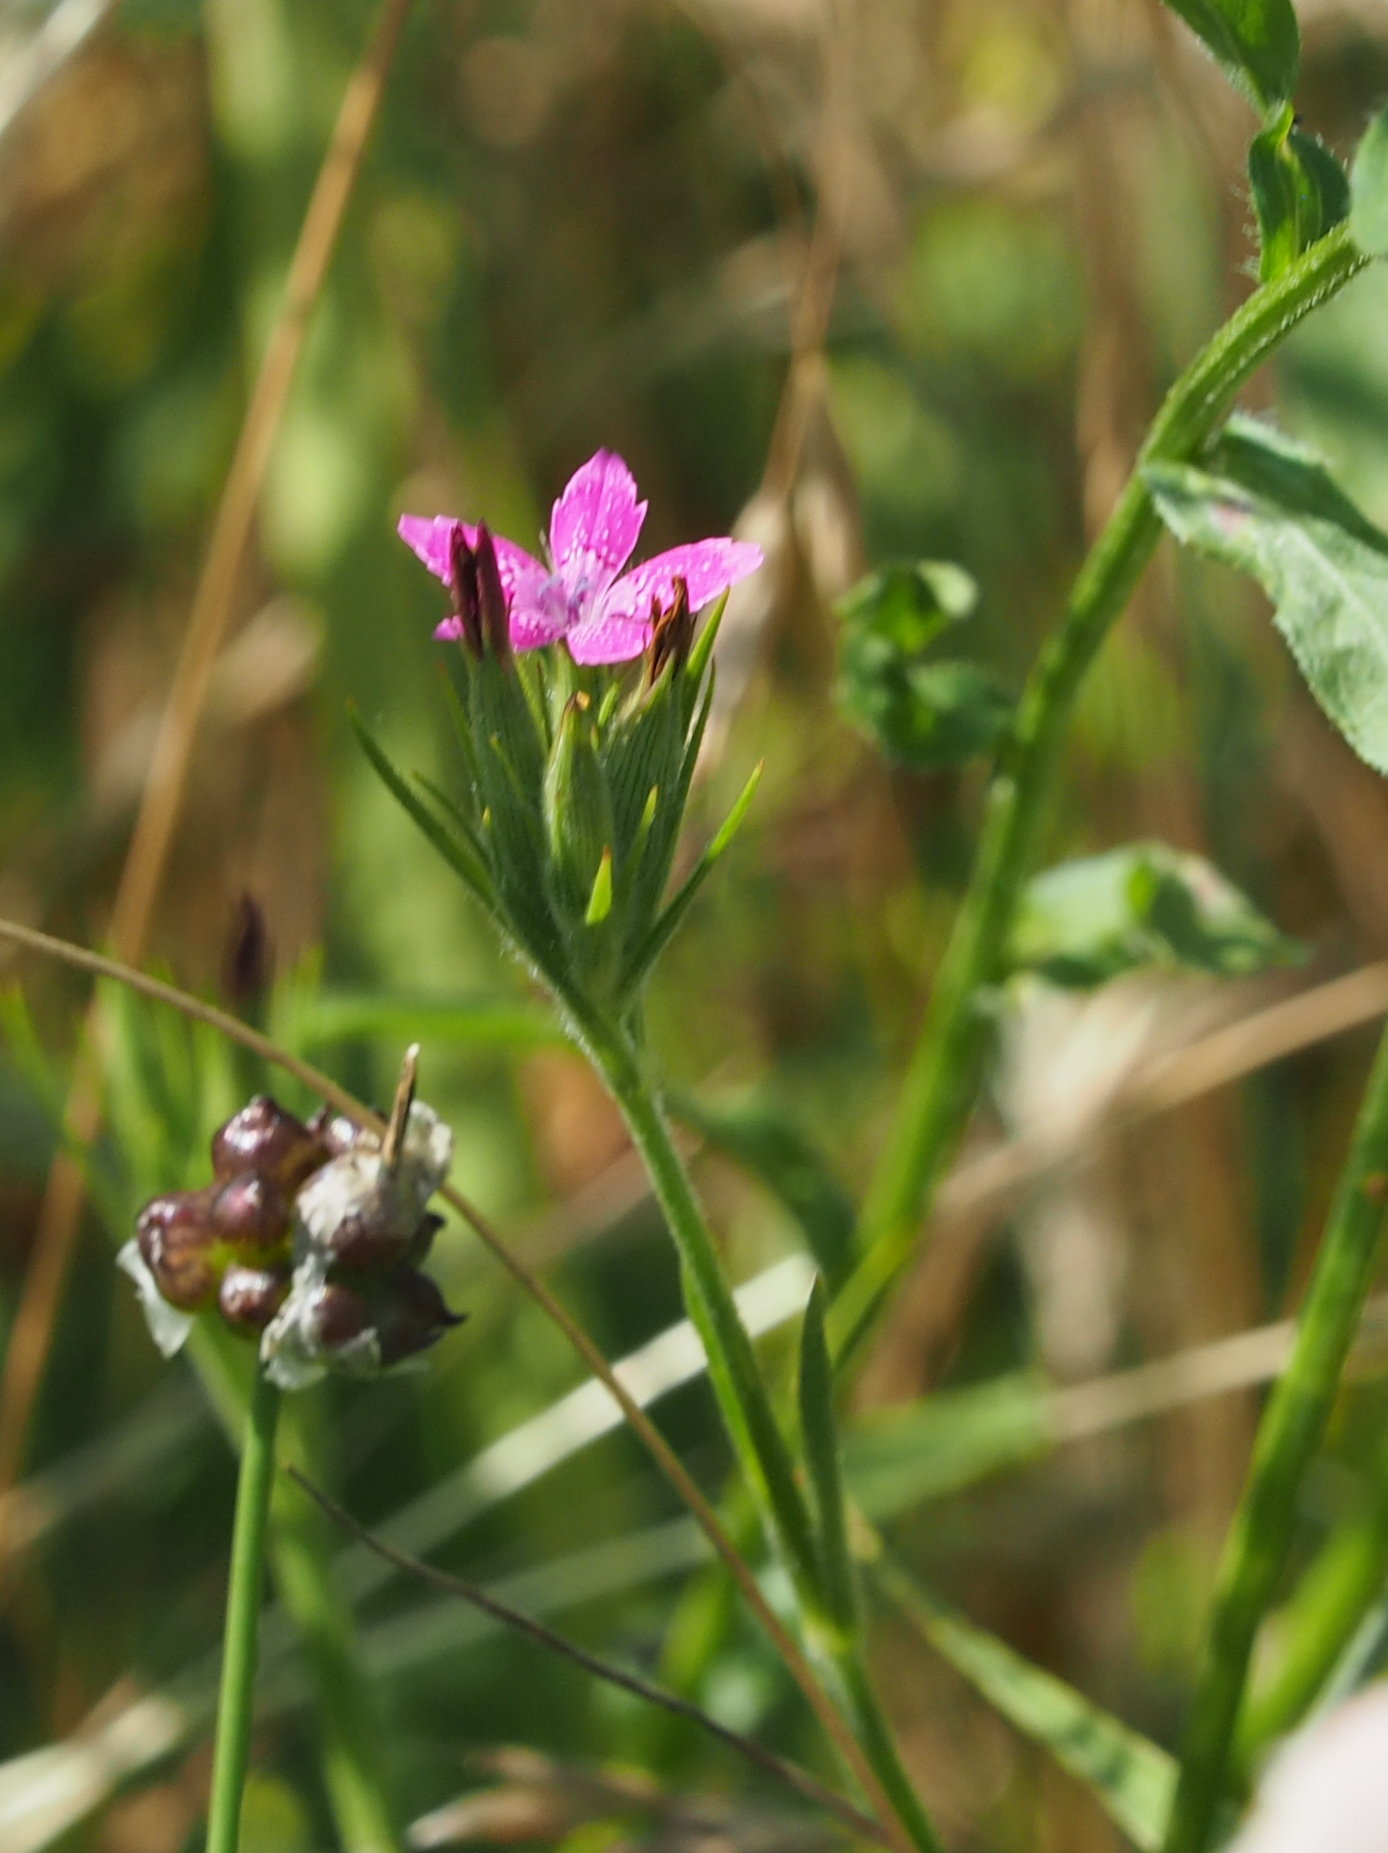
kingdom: Plantae
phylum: Tracheophyta
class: Magnoliopsida
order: Caryophyllales
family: Caryophyllaceae
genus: Dianthus
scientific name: Dianthus armeria
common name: Deptford pink
